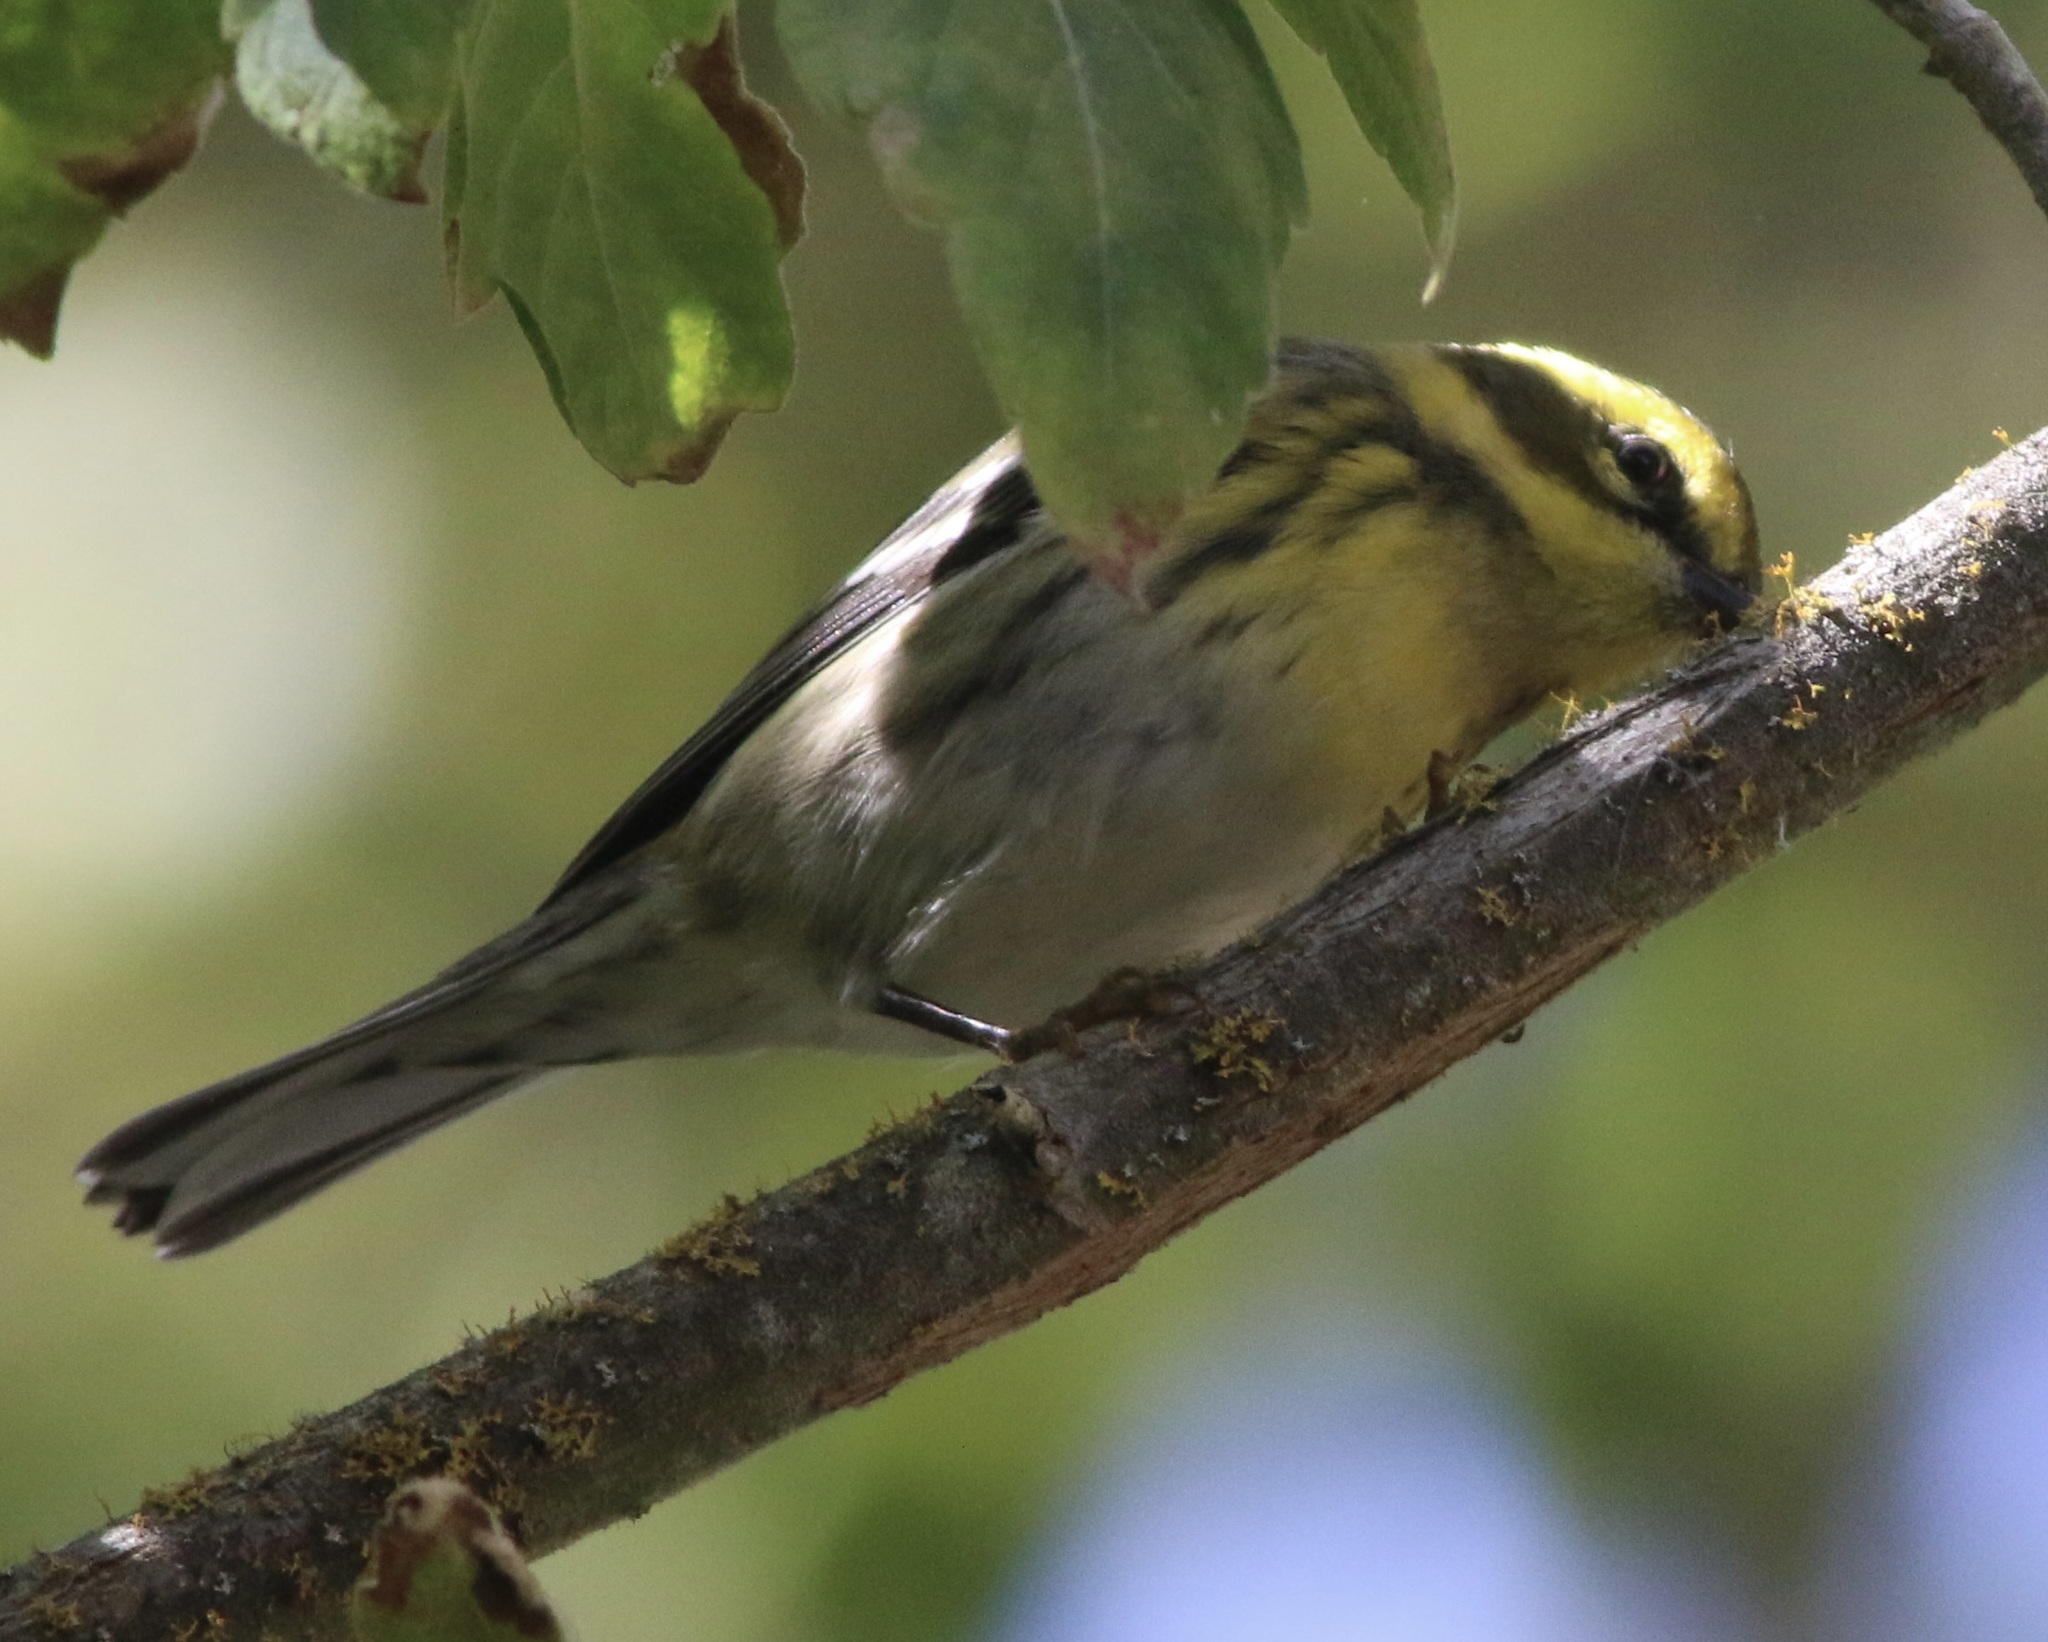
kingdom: Animalia
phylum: Chordata
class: Aves
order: Passeriformes
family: Parulidae
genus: Setophaga
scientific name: Setophaga townsendi
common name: Townsend's warbler
